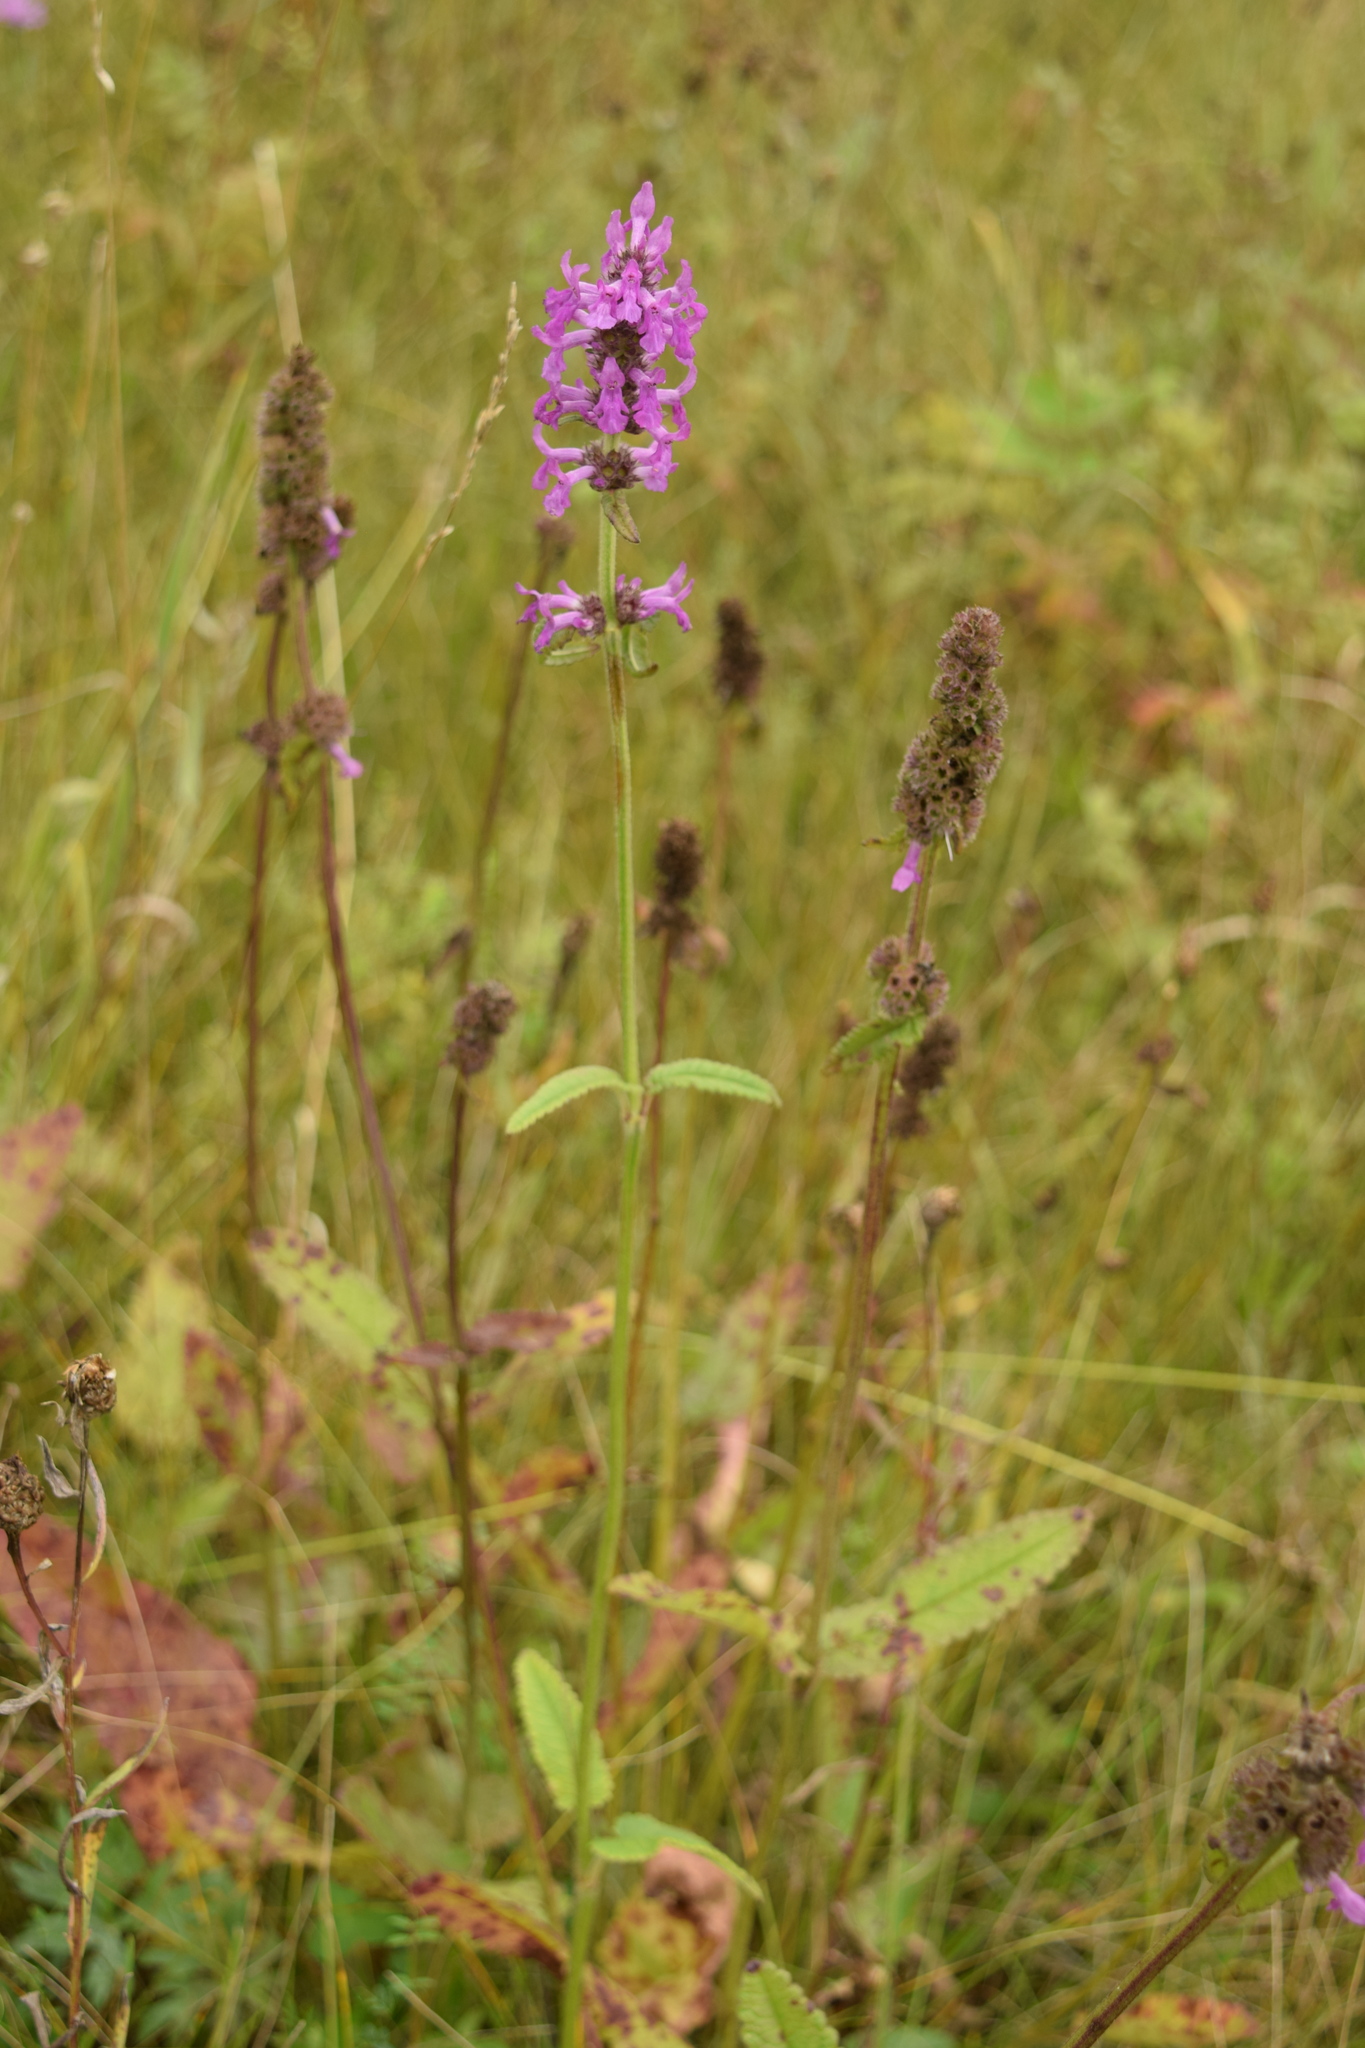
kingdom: Plantae
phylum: Tracheophyta
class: Magnoliopsida
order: Lamiales
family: Lamiaceae
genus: Betonica
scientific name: Betonica officinalis
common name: Bishop's-wort
